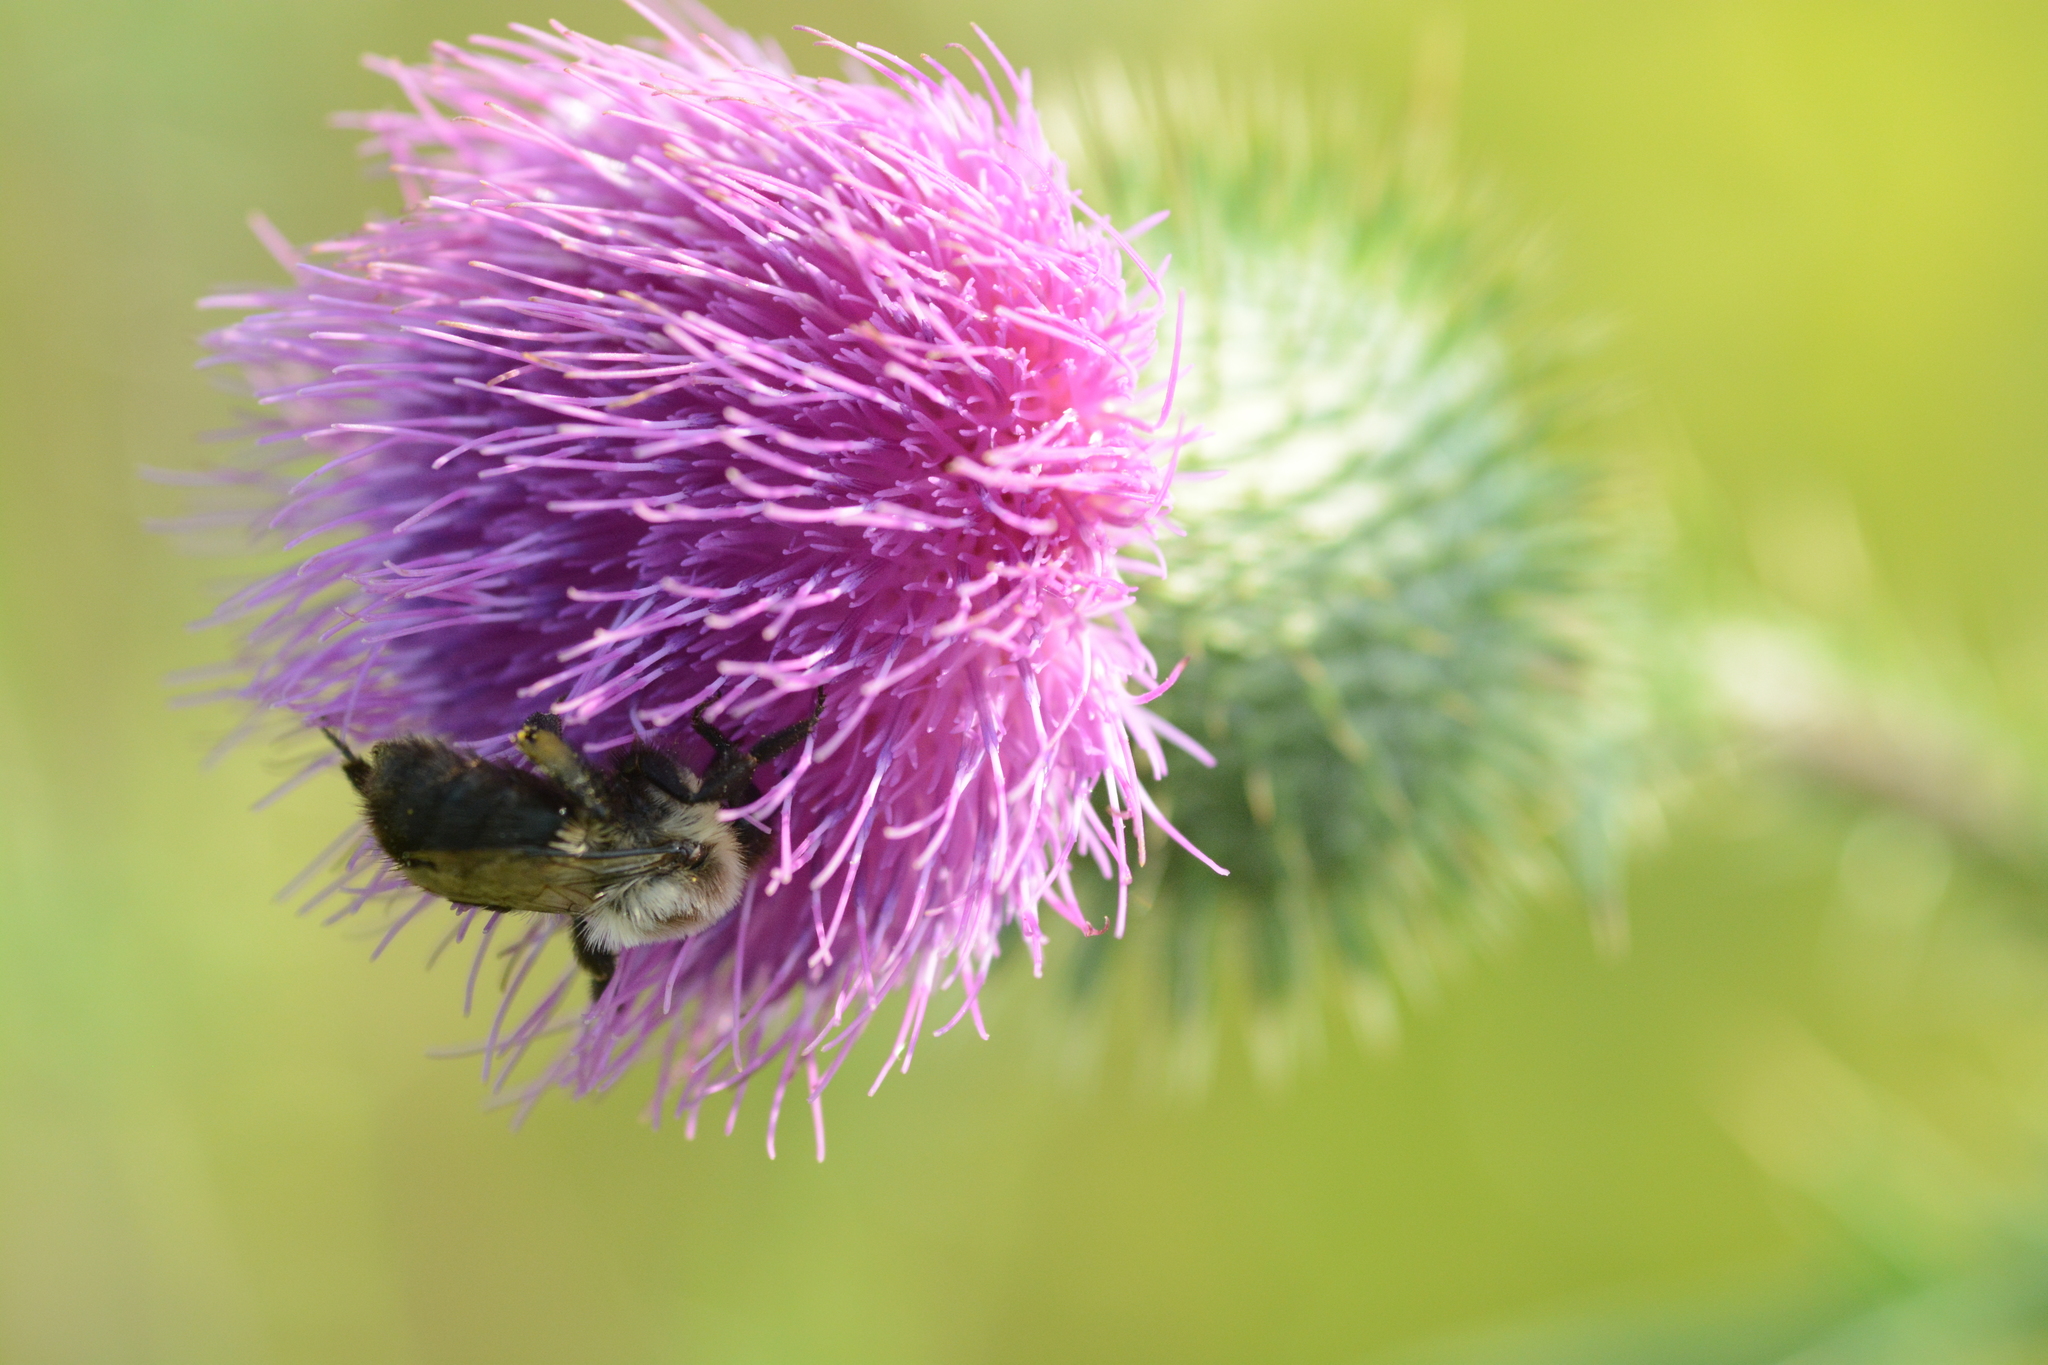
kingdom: Animalia
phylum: Arthropoda
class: Insecta
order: Hymenoptera
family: Apidae
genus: Bombus
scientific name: Bombus impatiens
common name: Common eastern bumble bee
